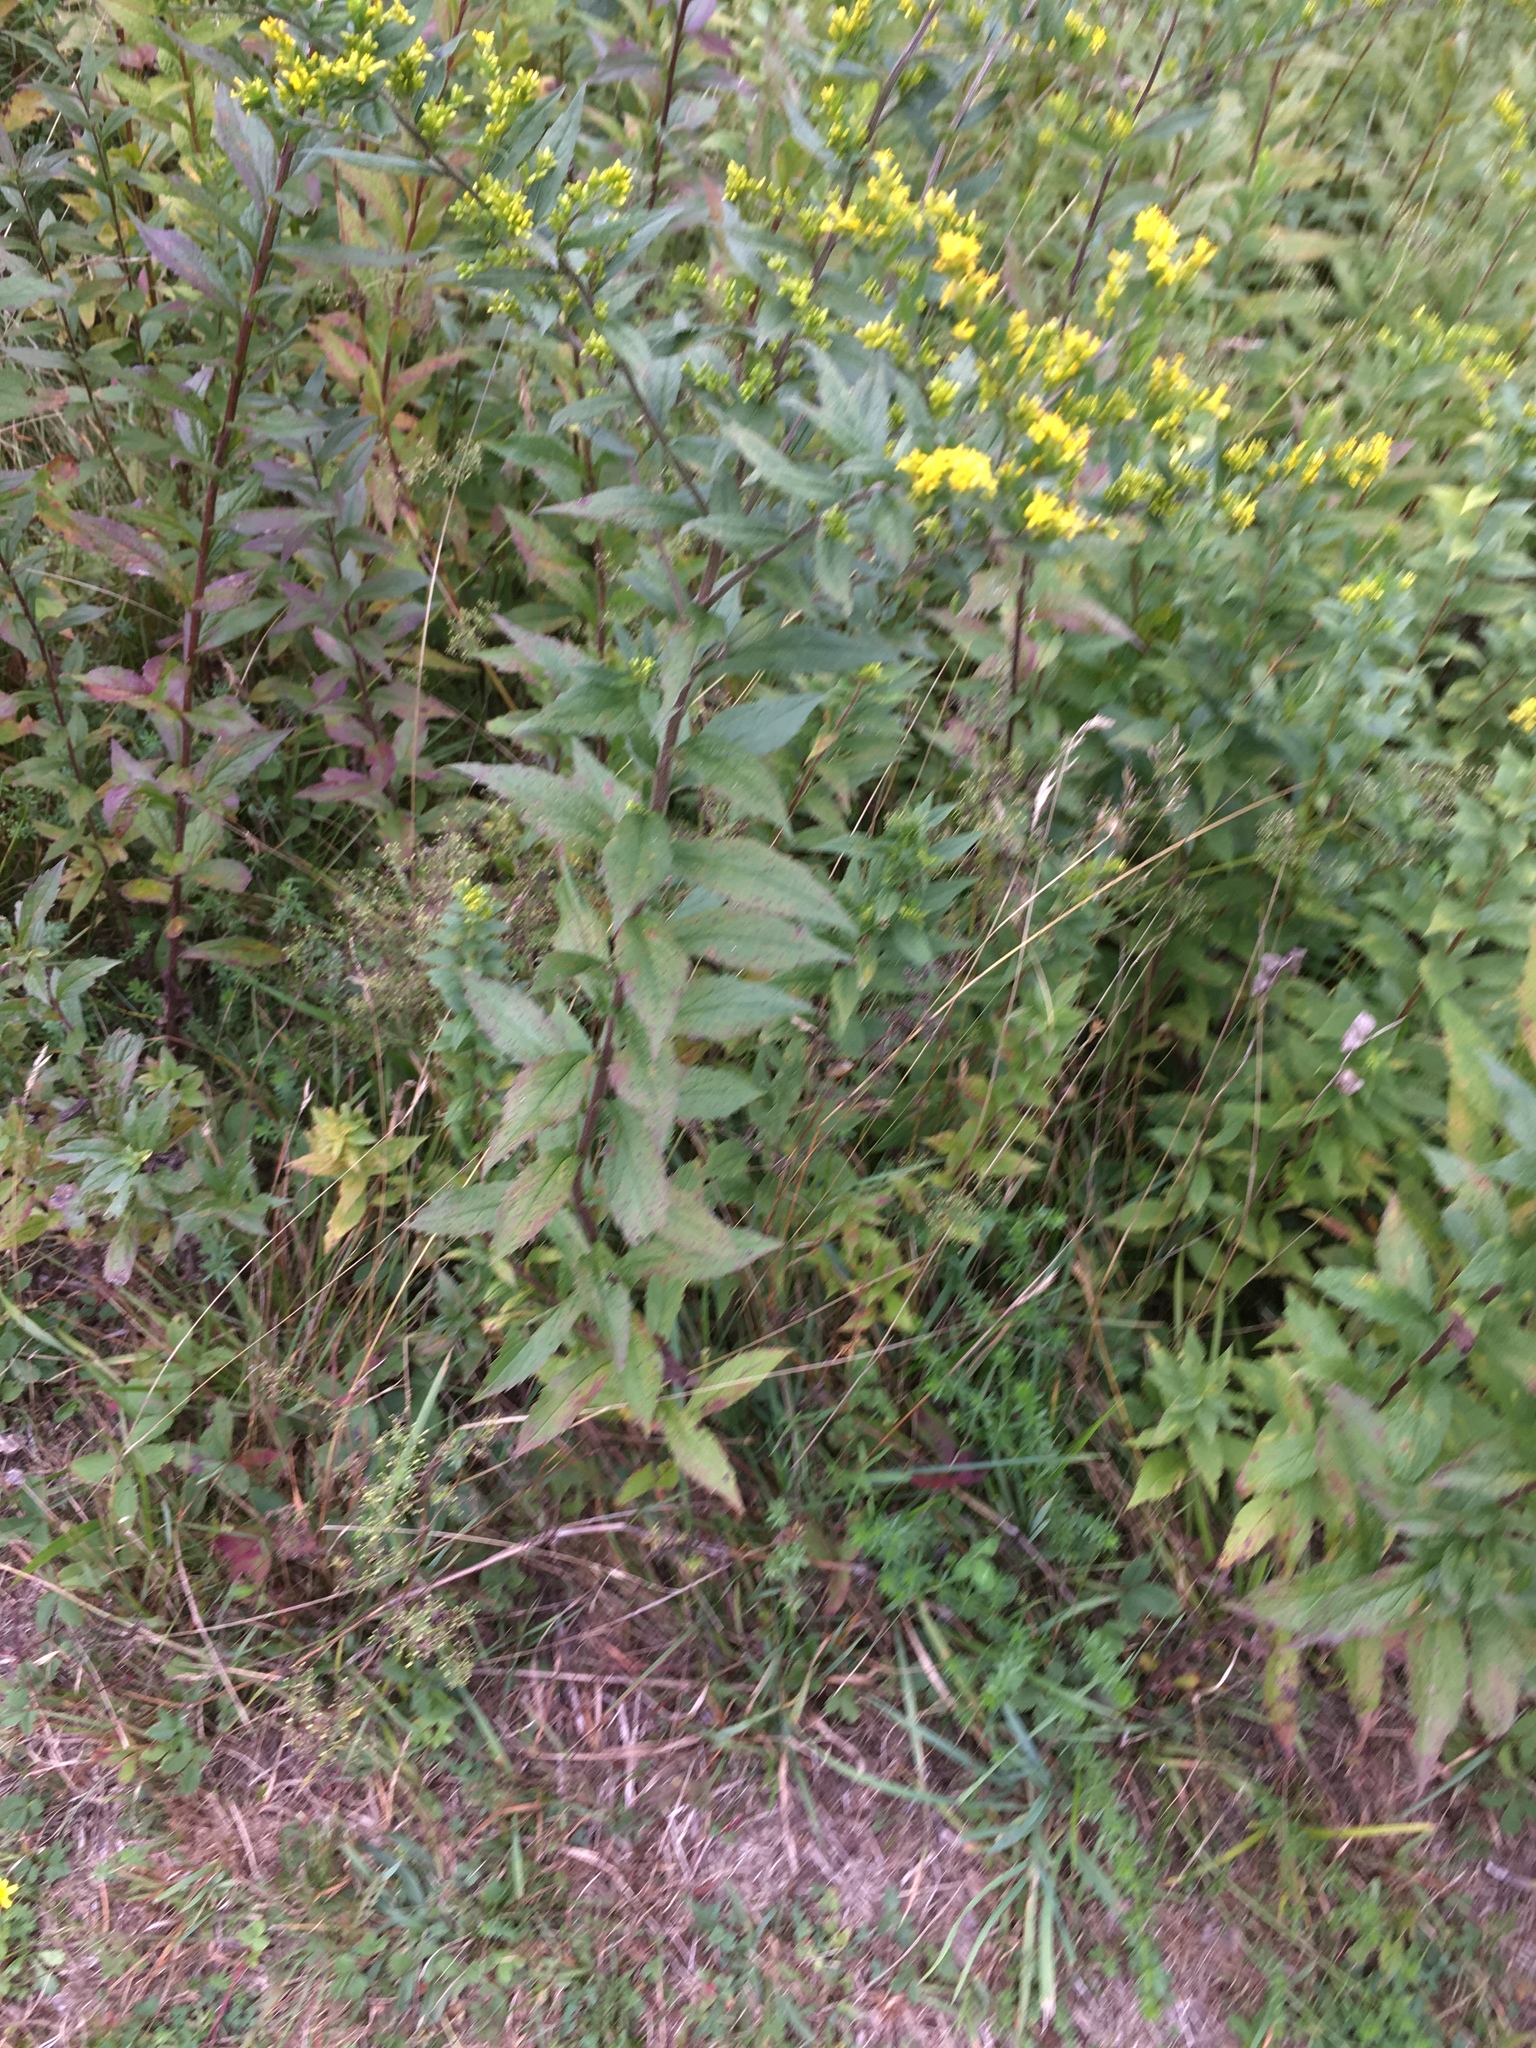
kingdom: Plantae
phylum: Tracheophyta
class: Magnoliopsida
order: Asterales
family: Asteraceae
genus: Solidago
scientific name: Solidago rugosa
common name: Rough-stemmed goldenrod
